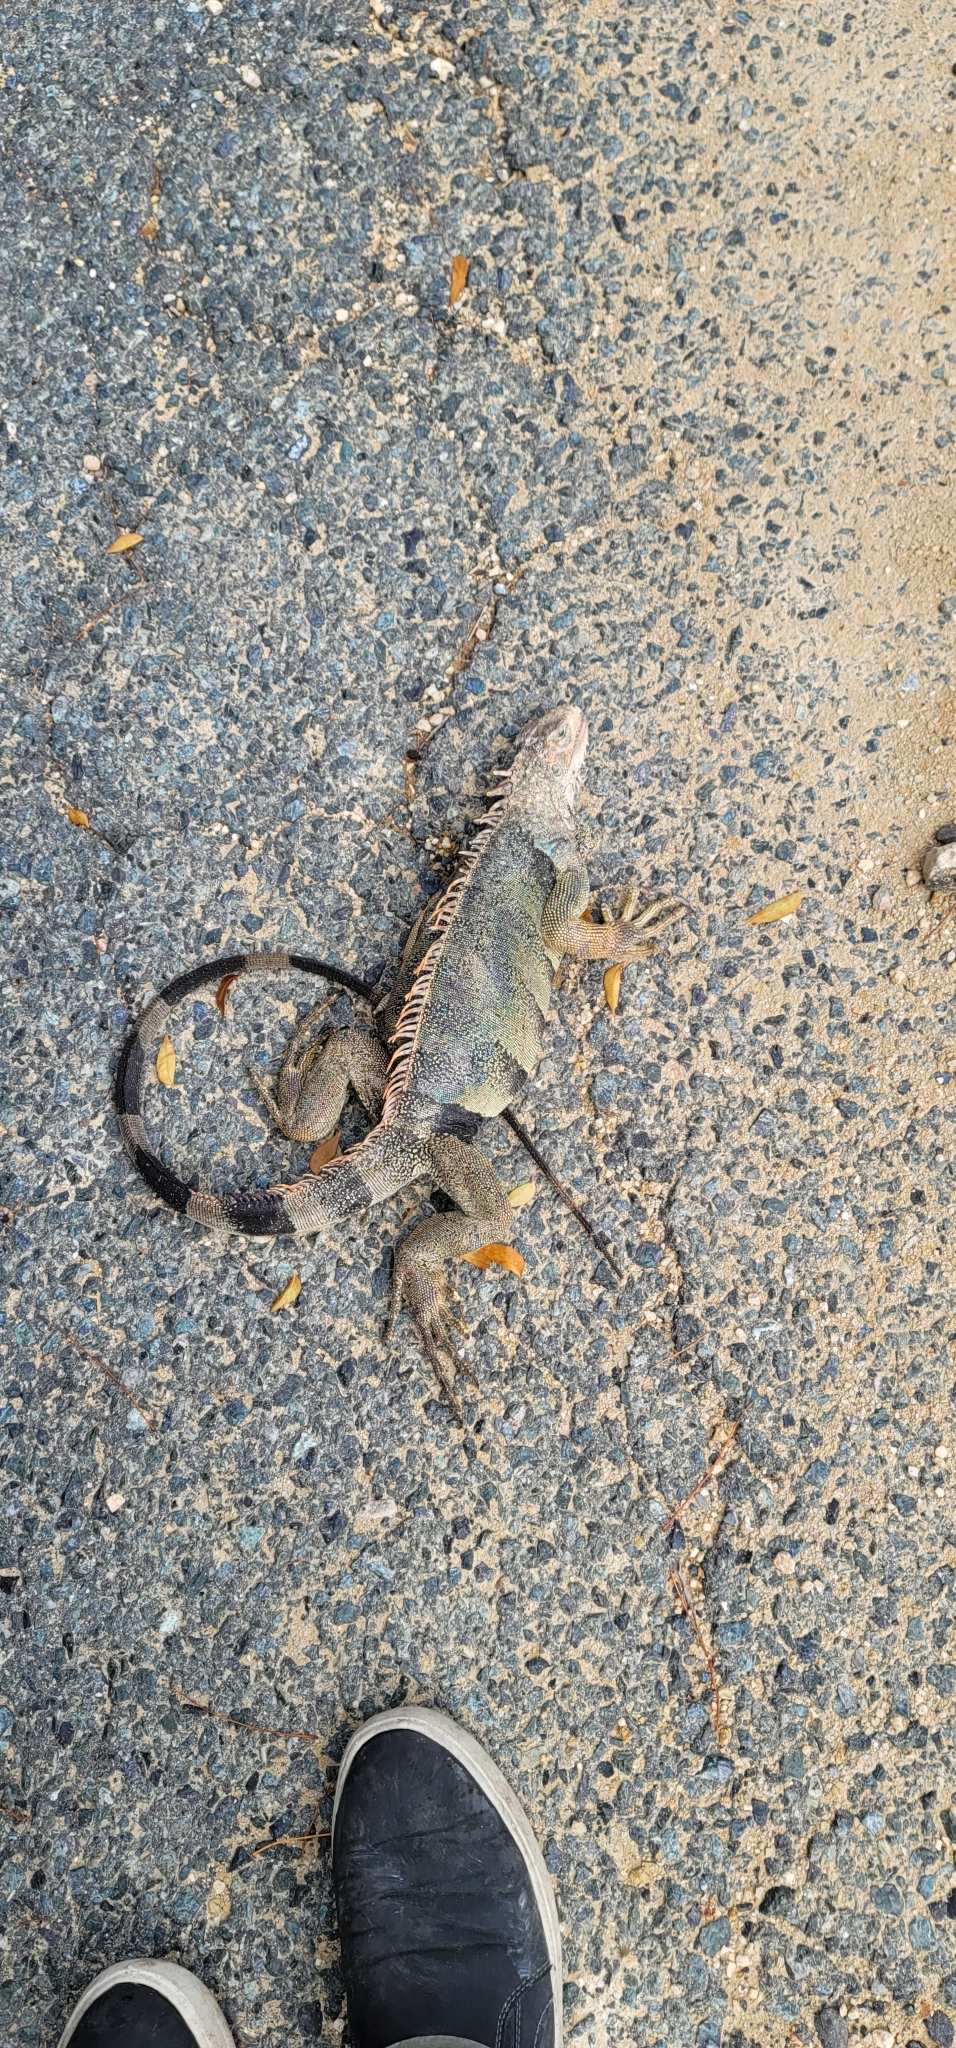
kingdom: Animalia
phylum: Chordata
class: Squamata
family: Iguanidae
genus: Iguana
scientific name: Iguana iguana
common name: Green iguana
